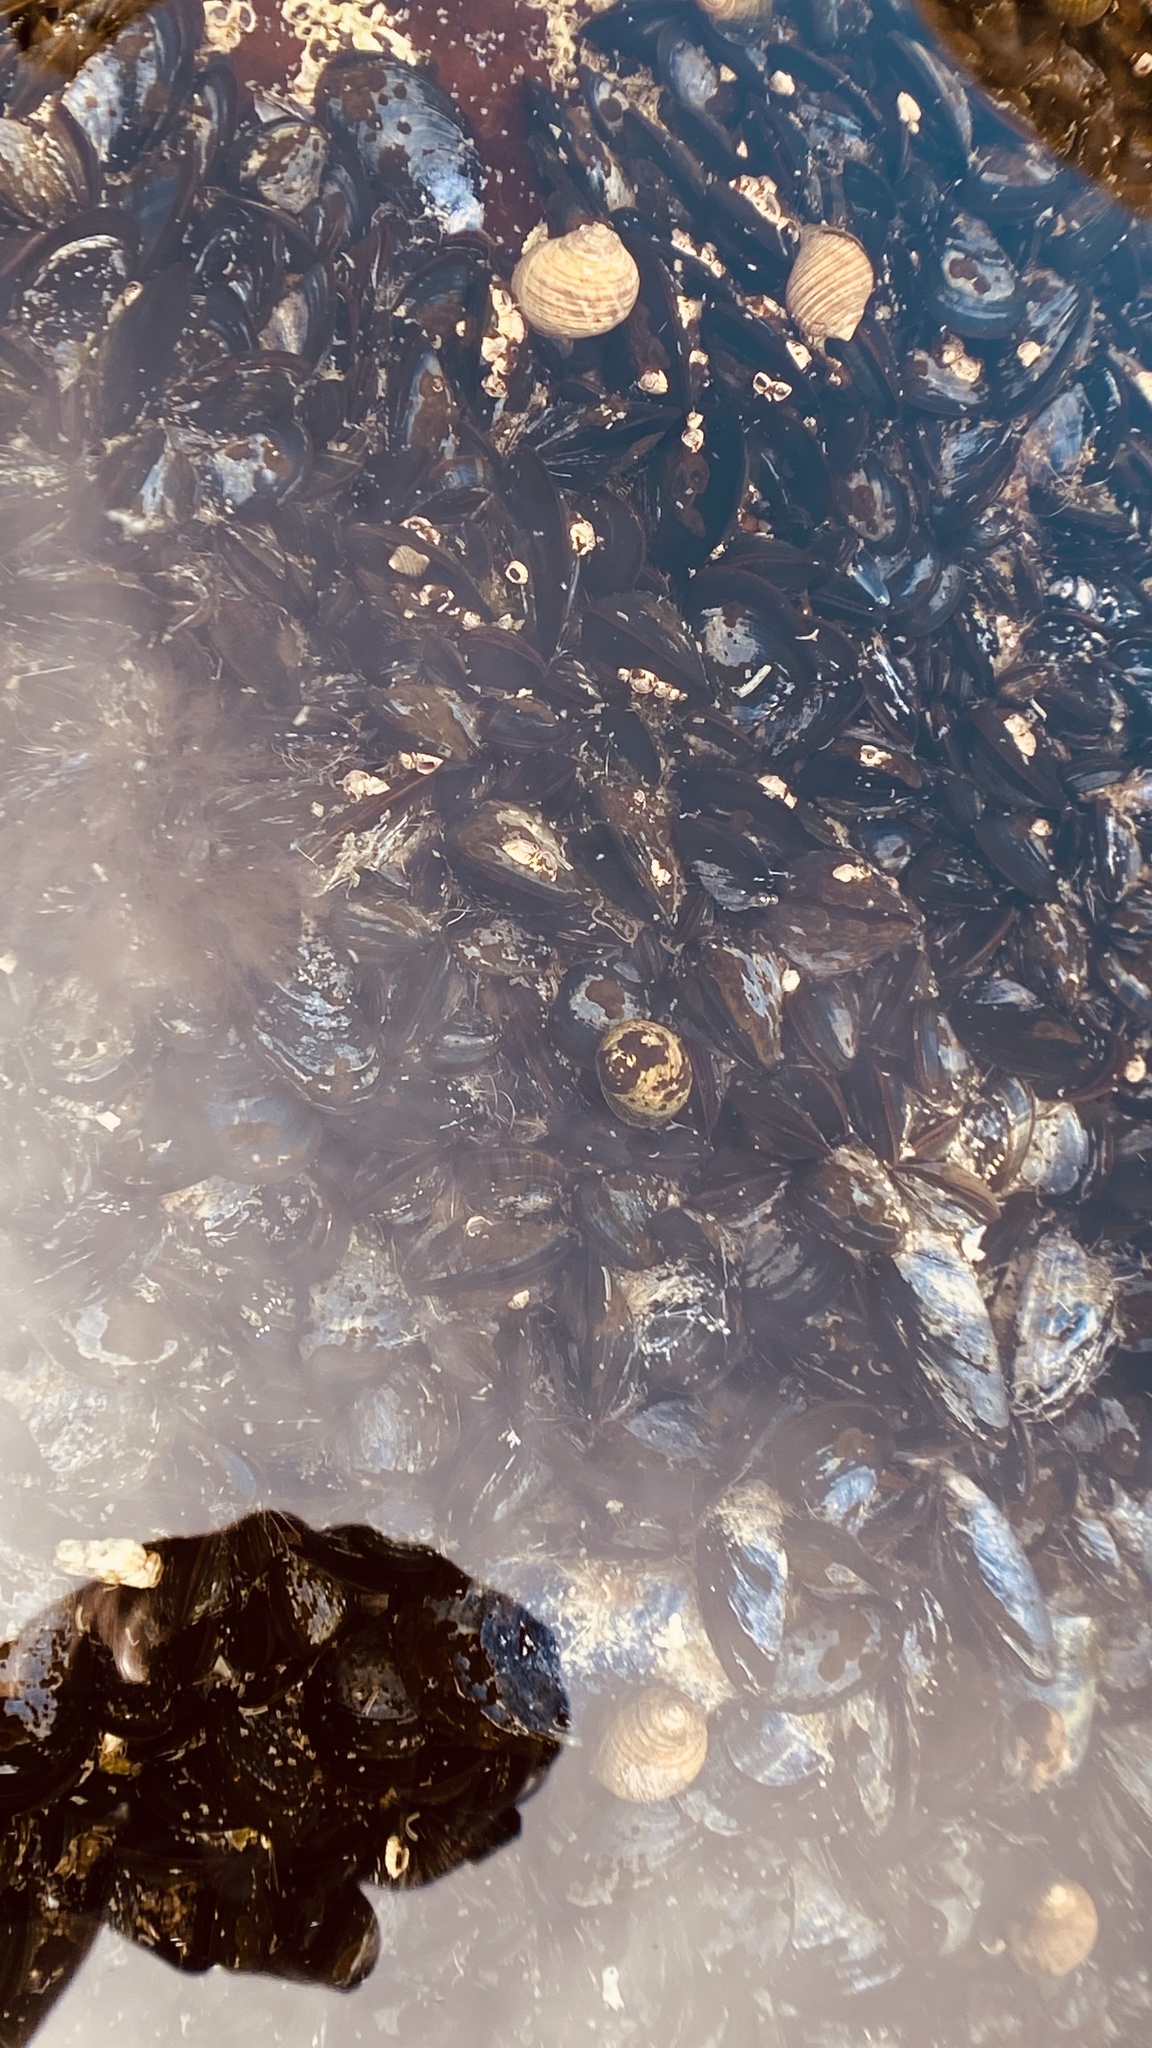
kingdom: Animalia
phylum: Mollusca
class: Bivalvia
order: Mytilida
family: Mytilidae
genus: Mytilus
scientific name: Mytilus edulis
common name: Blue mussel
